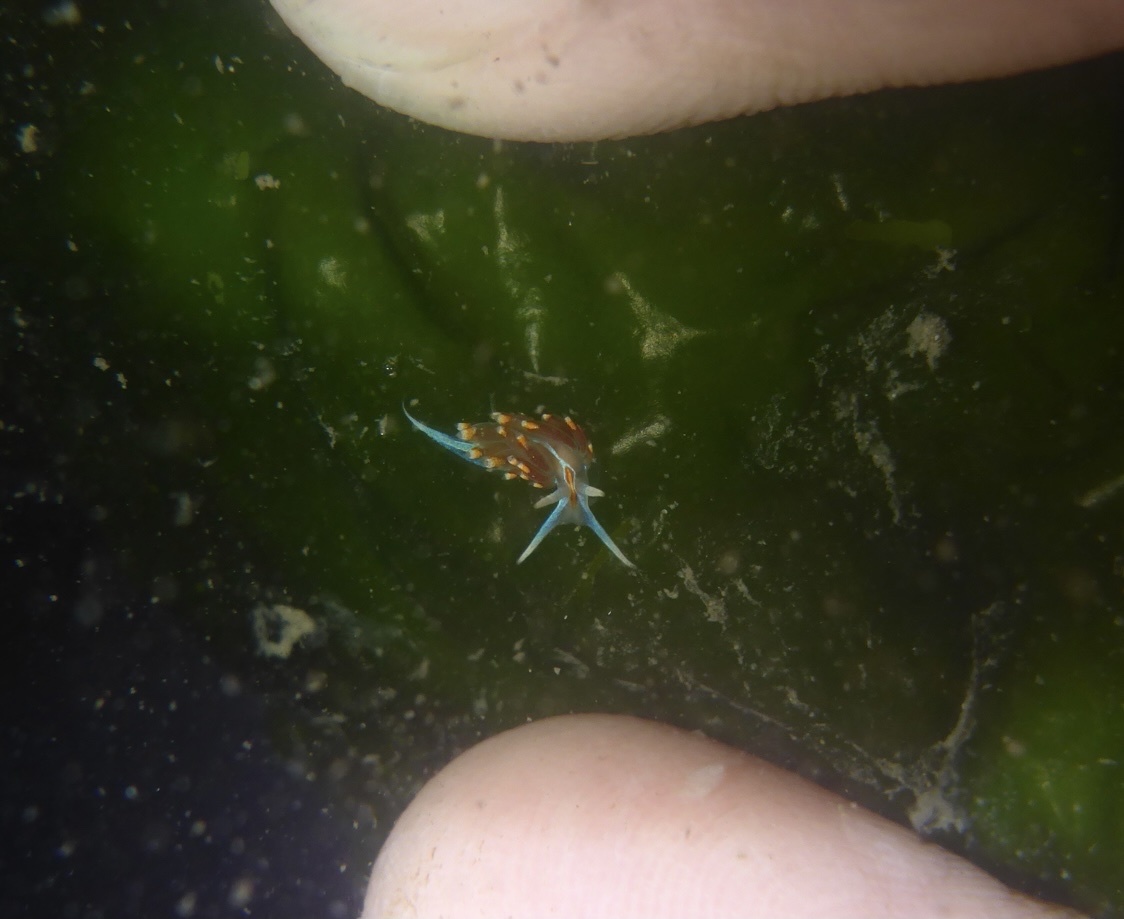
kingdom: Animalia
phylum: Mollusca
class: Gastropoda
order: Nudibranchia
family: Myrrhinidae
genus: Hermissenda
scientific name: Hermissenda opalescens
